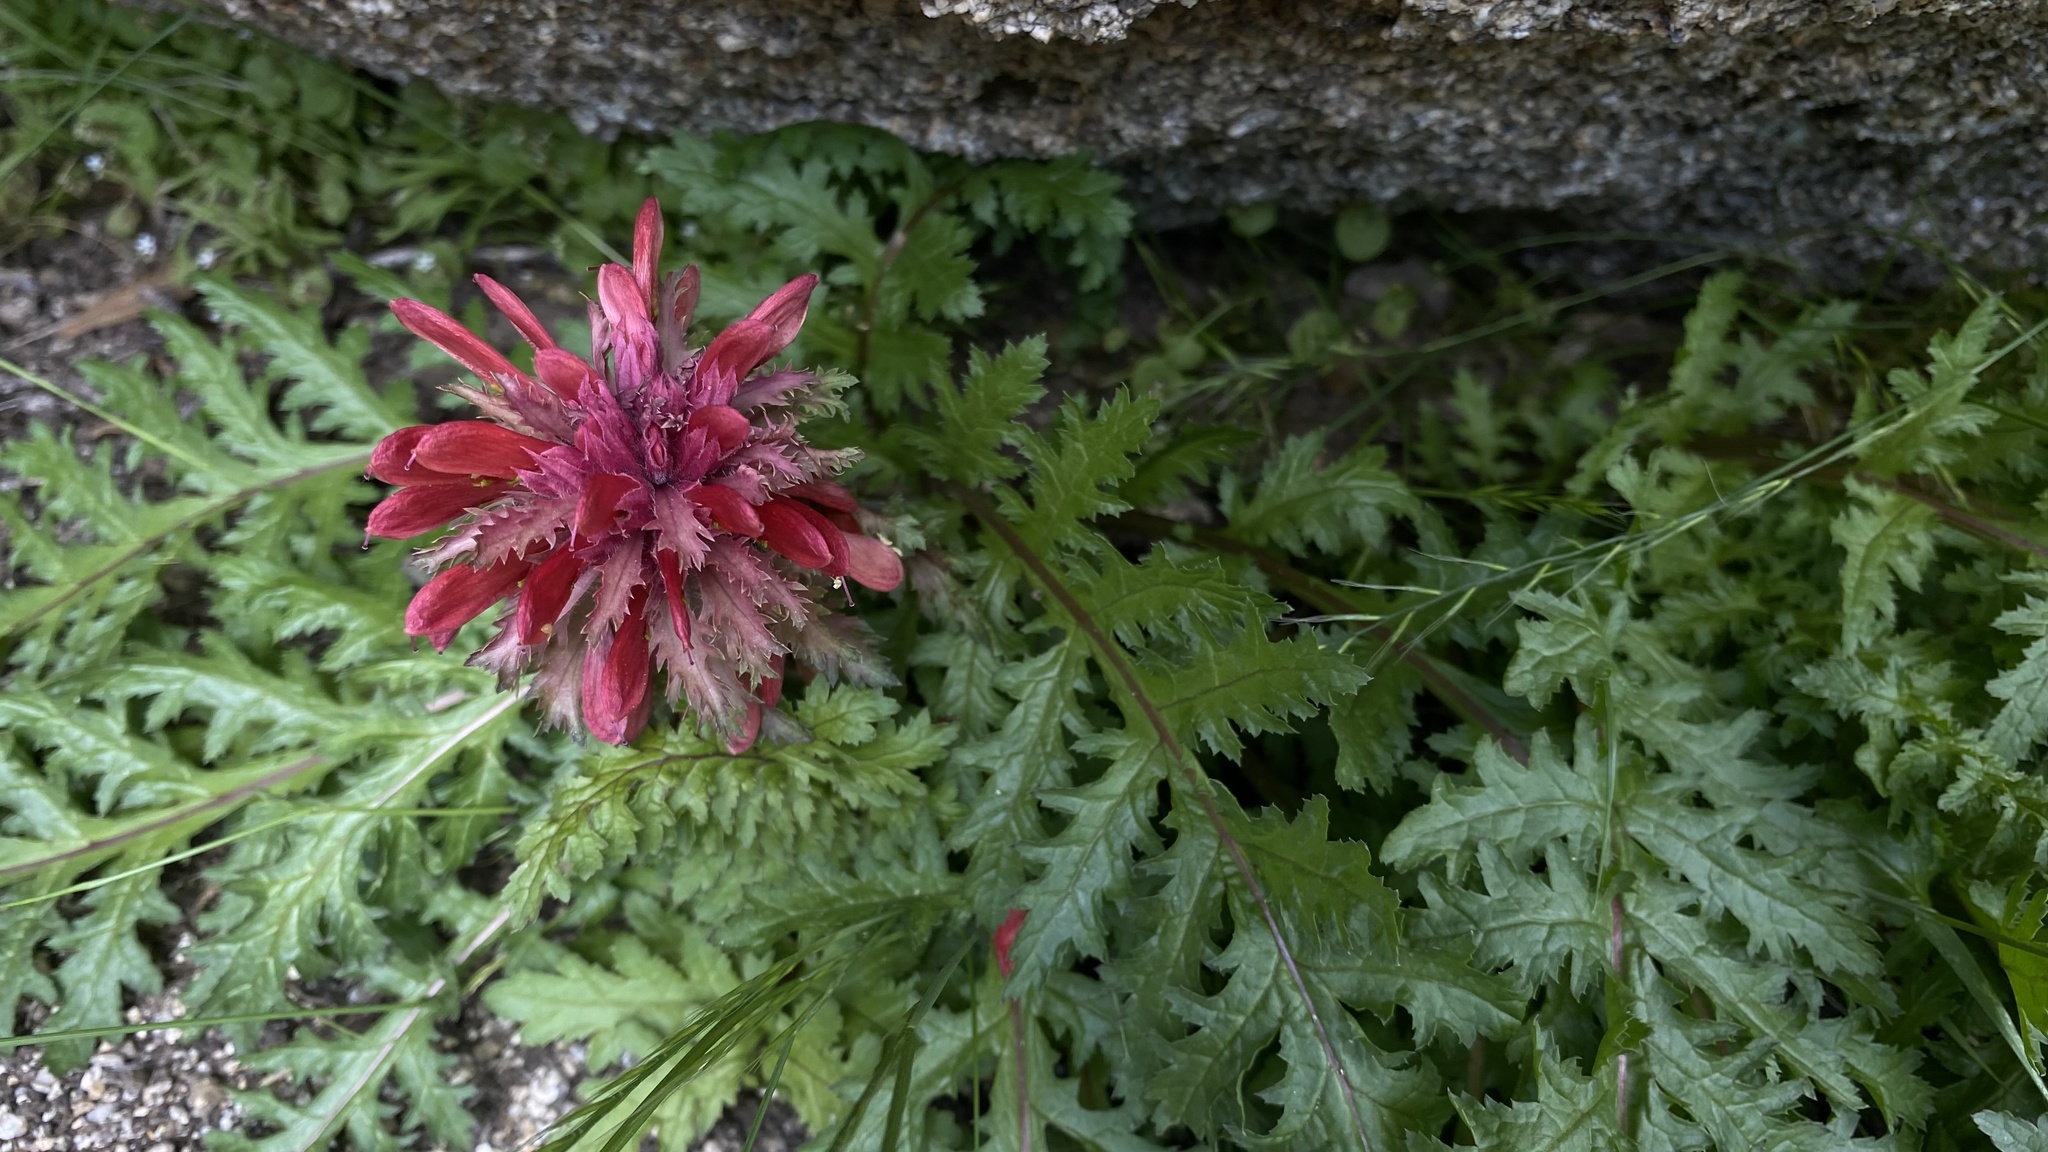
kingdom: Plantae
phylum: Tracheophyta
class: Magnoliopsida
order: Lamiales
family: Orobanchaceae
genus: Pedicularis
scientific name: Pedicularis densiflora
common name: Indian warrior
